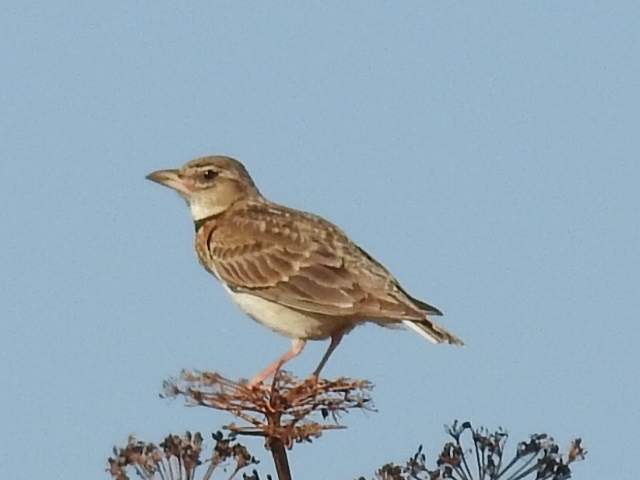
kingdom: Animalia
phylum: Chordata
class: Aves
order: Passeriformes
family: Alaudidae
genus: Melanocorypha
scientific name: Melanocorypha calandra
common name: Calandra lark
